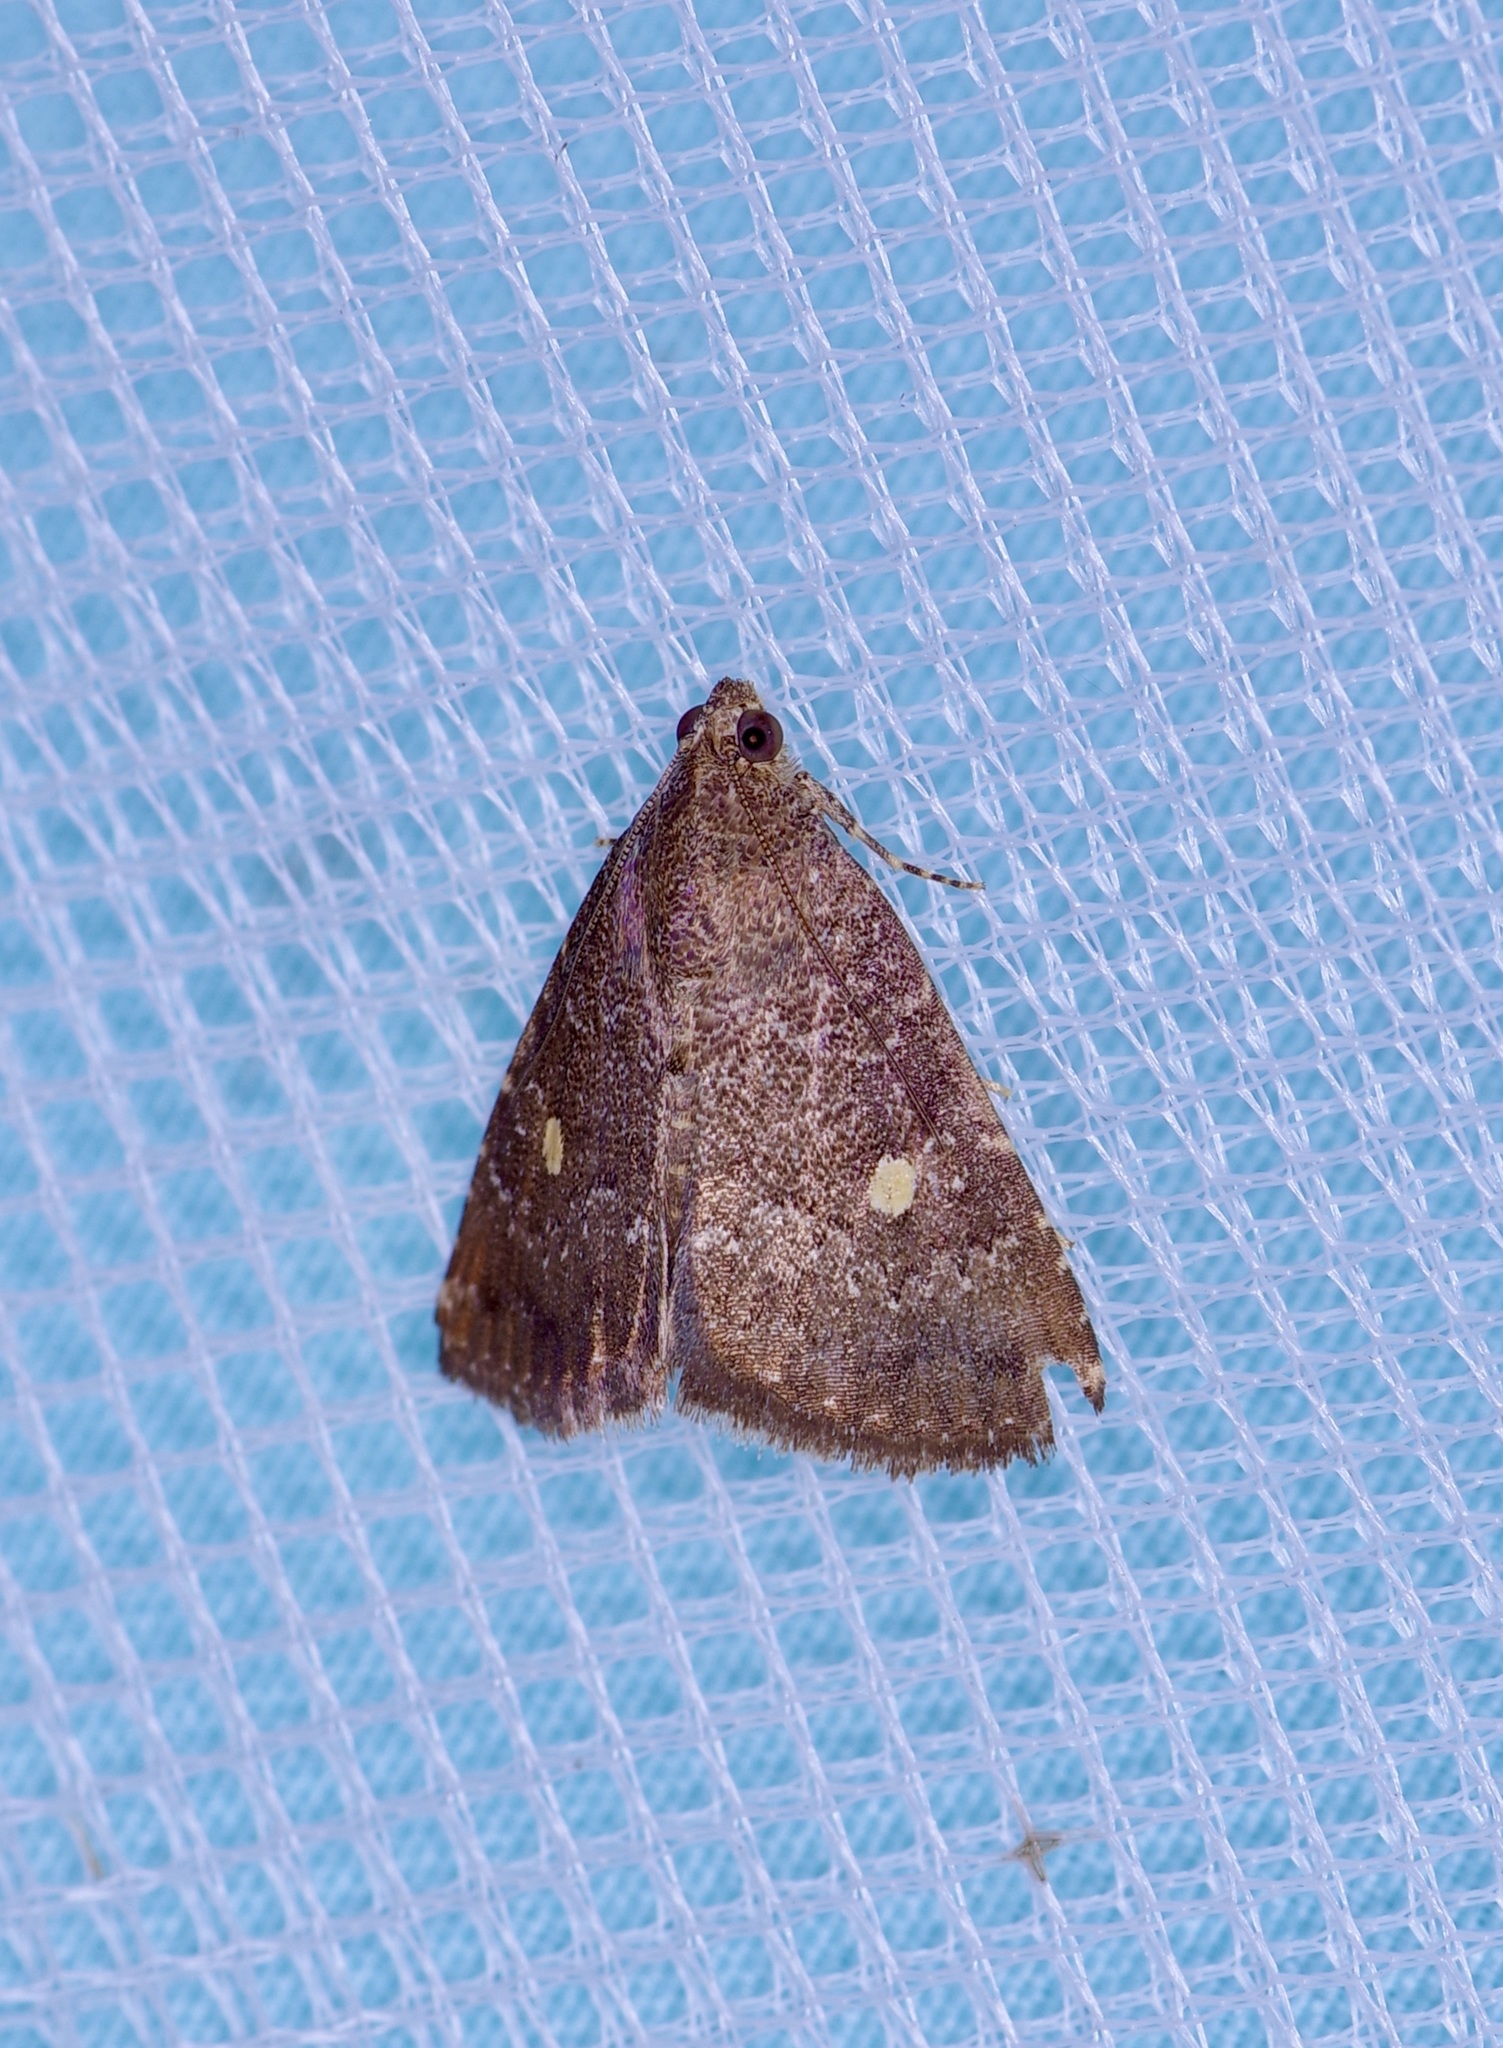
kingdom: Animalia
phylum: Arthropoda
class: Insecta
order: Lepidoptera
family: Noctuidae
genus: Amyna
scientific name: Amyna stricta
